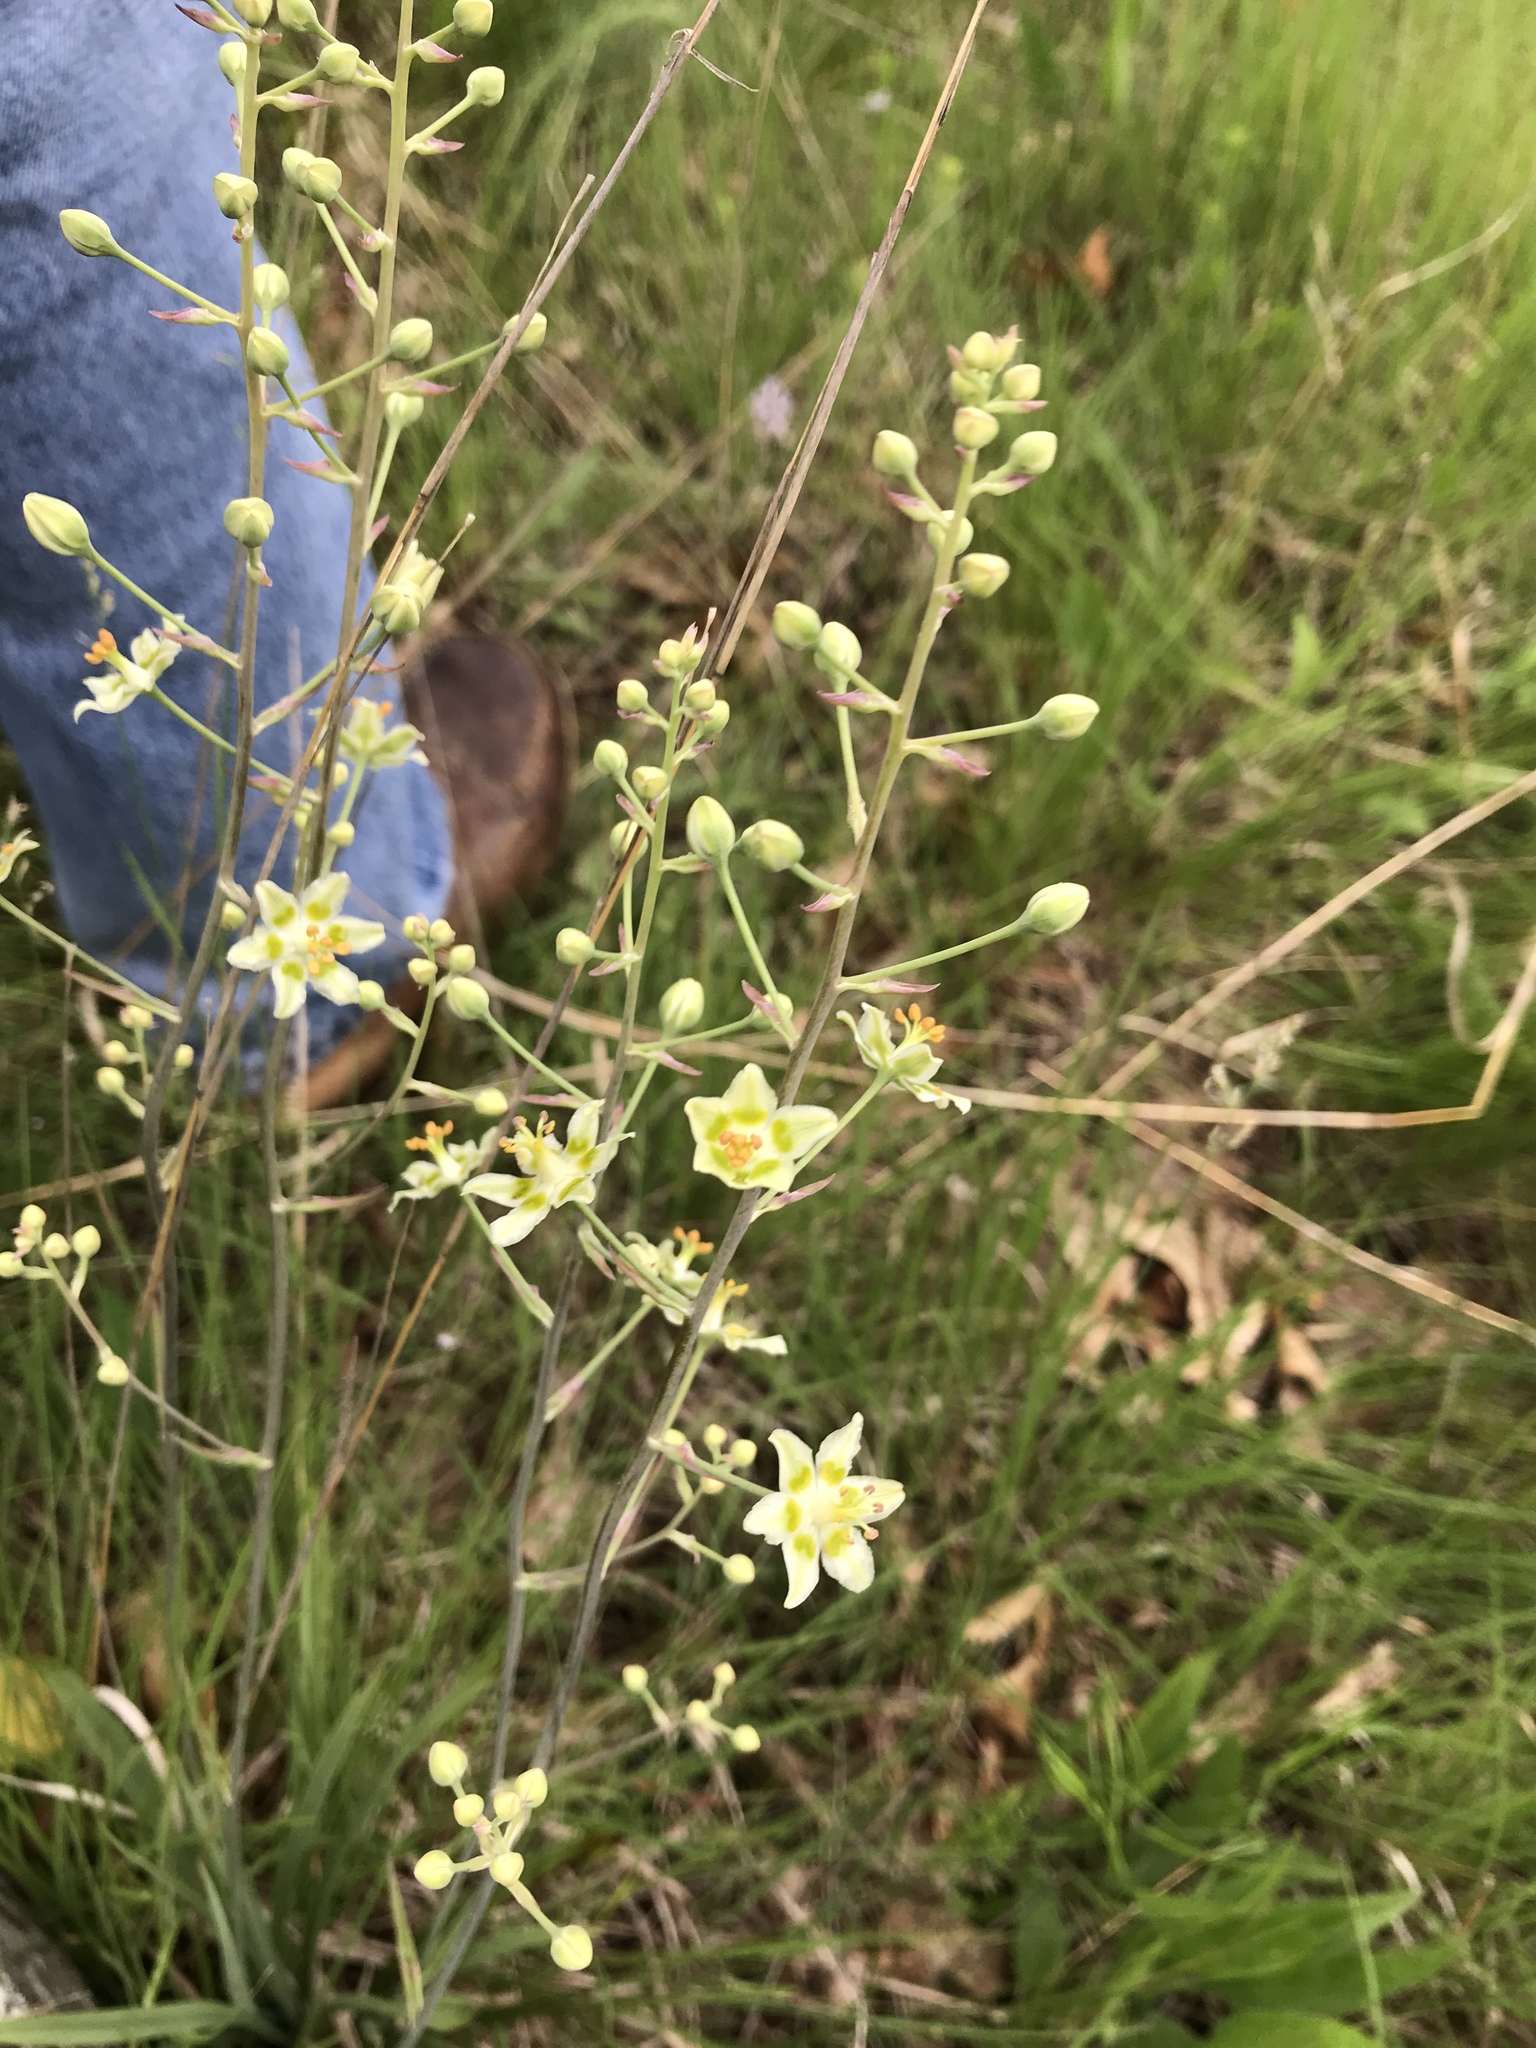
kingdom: Plantae
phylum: Tracheophyta
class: Liliopsida
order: Liliales
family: Melanthiaceae
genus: Anticlea
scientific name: Anticlea elegans
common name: Mountain death camas
